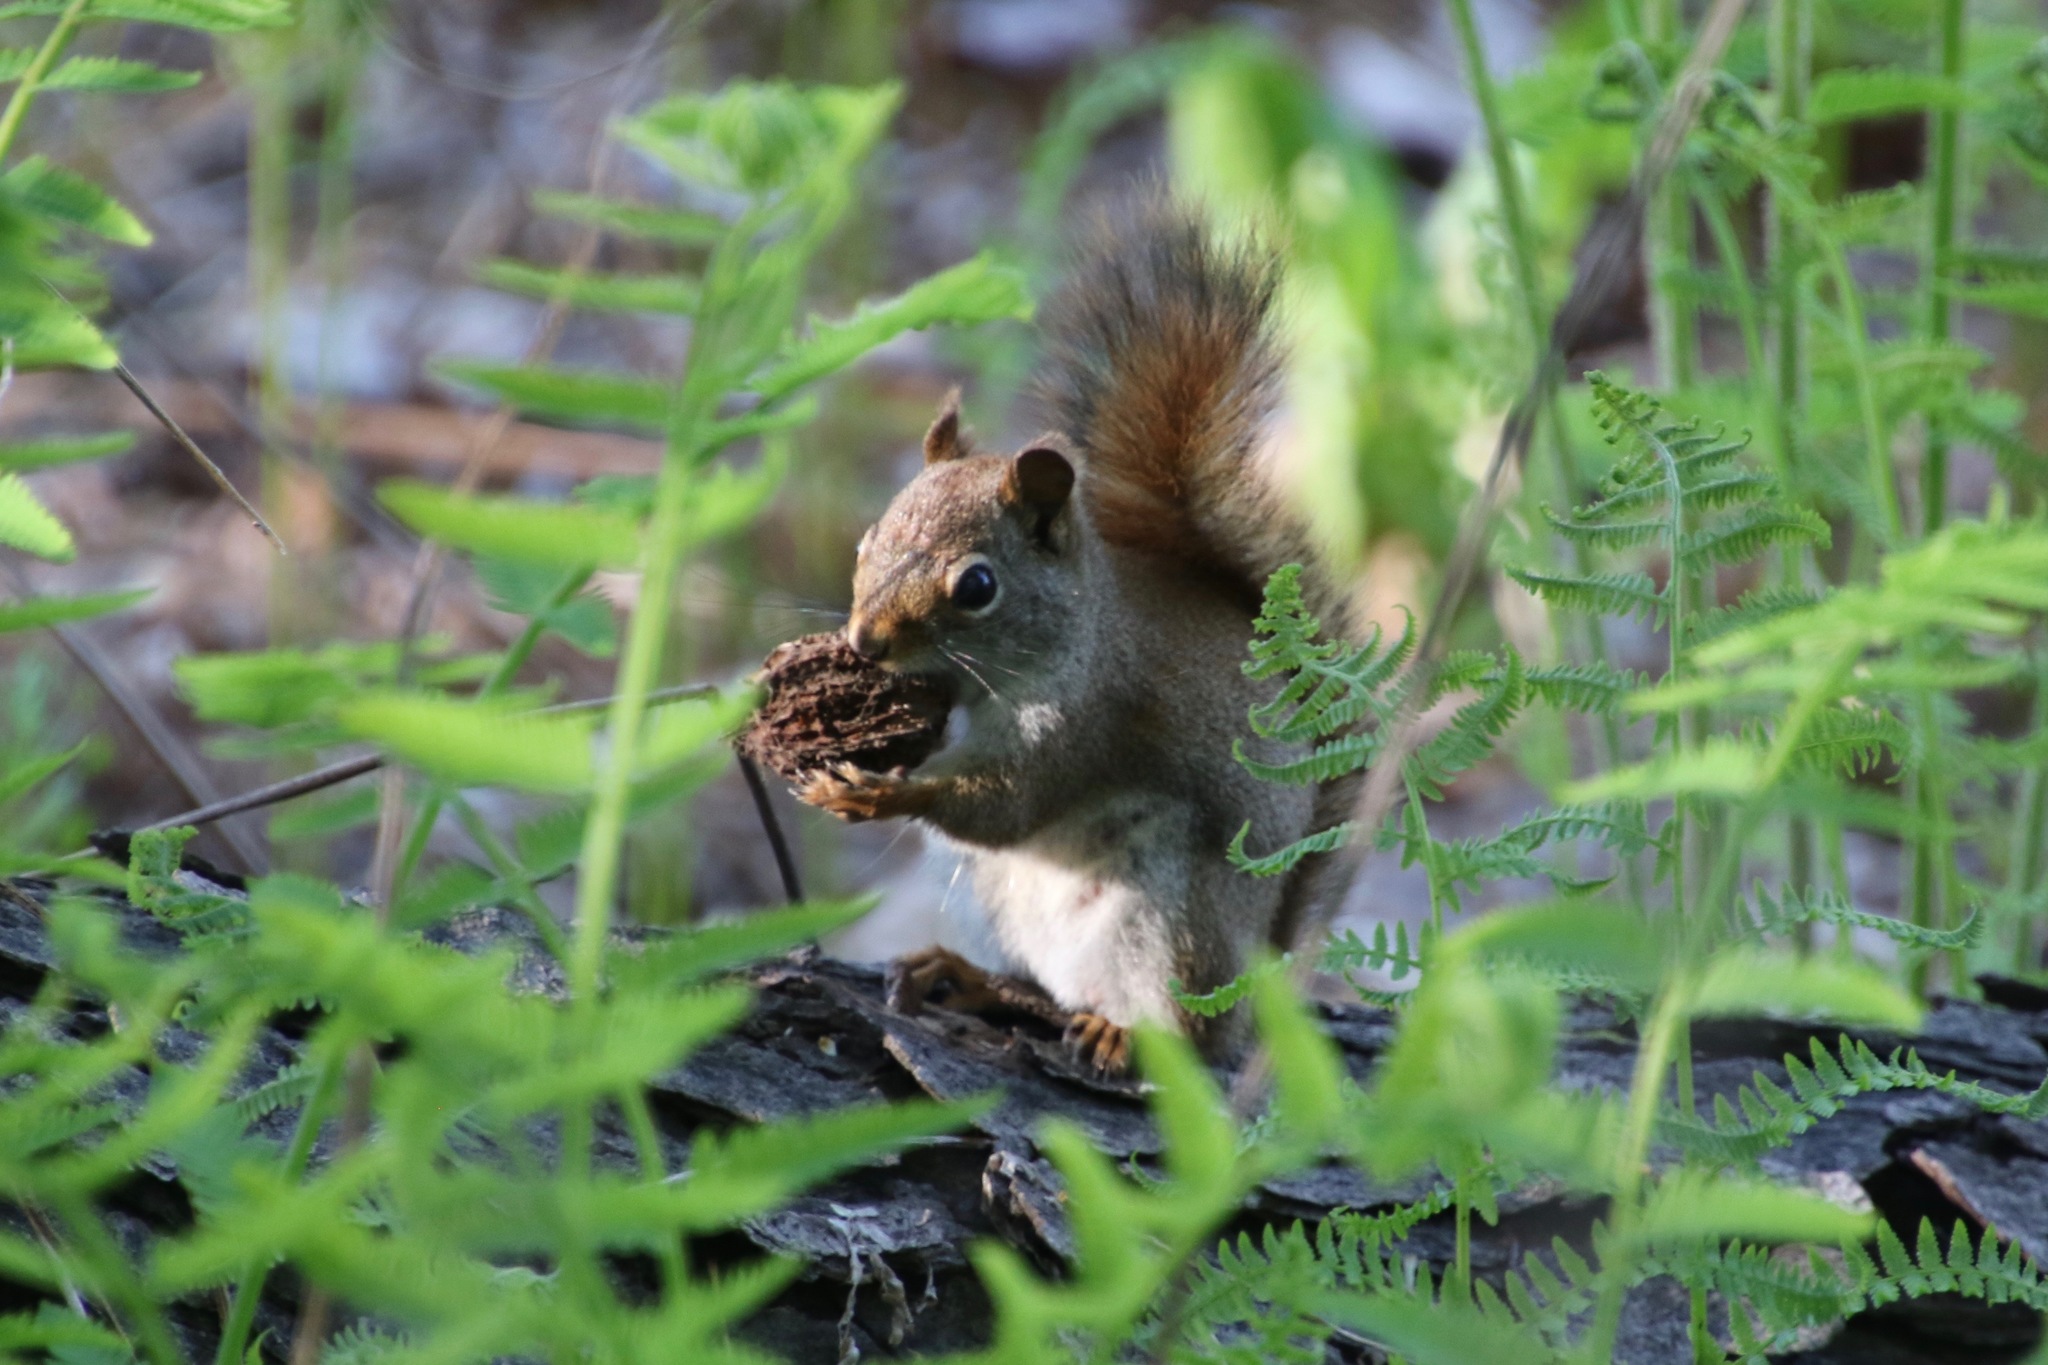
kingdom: Animalia
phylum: Chordata
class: Mammalia
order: Rodentia
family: Sciuridae
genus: Tamiasciurus
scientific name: Tamiasciurus hudsonicus
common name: Red squirrel
